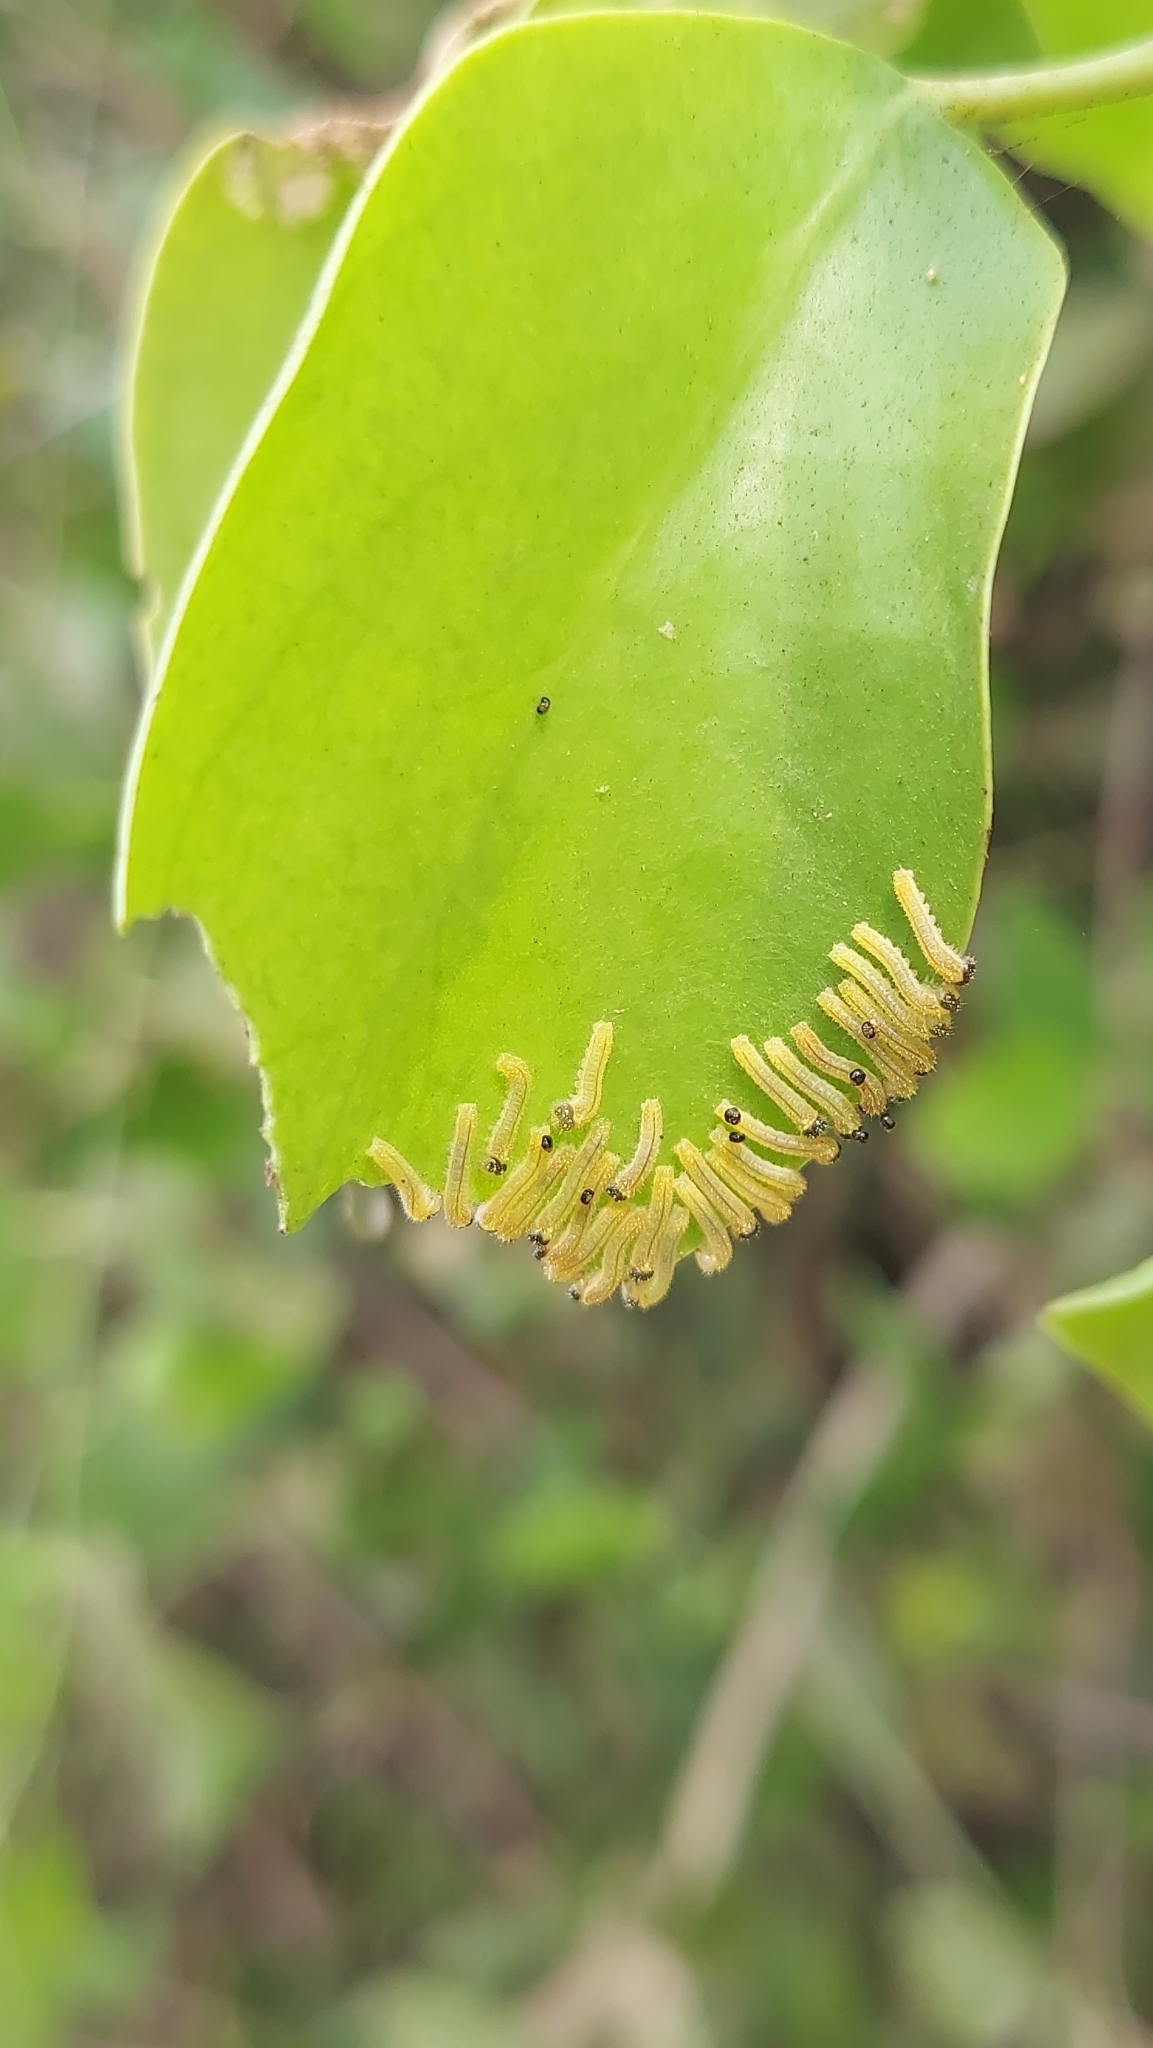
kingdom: Animalia
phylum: Arthropoda
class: Insecta
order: Lepidoptera
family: Pieridae
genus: Colotis
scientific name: Colotis amata
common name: Small salmon arab
